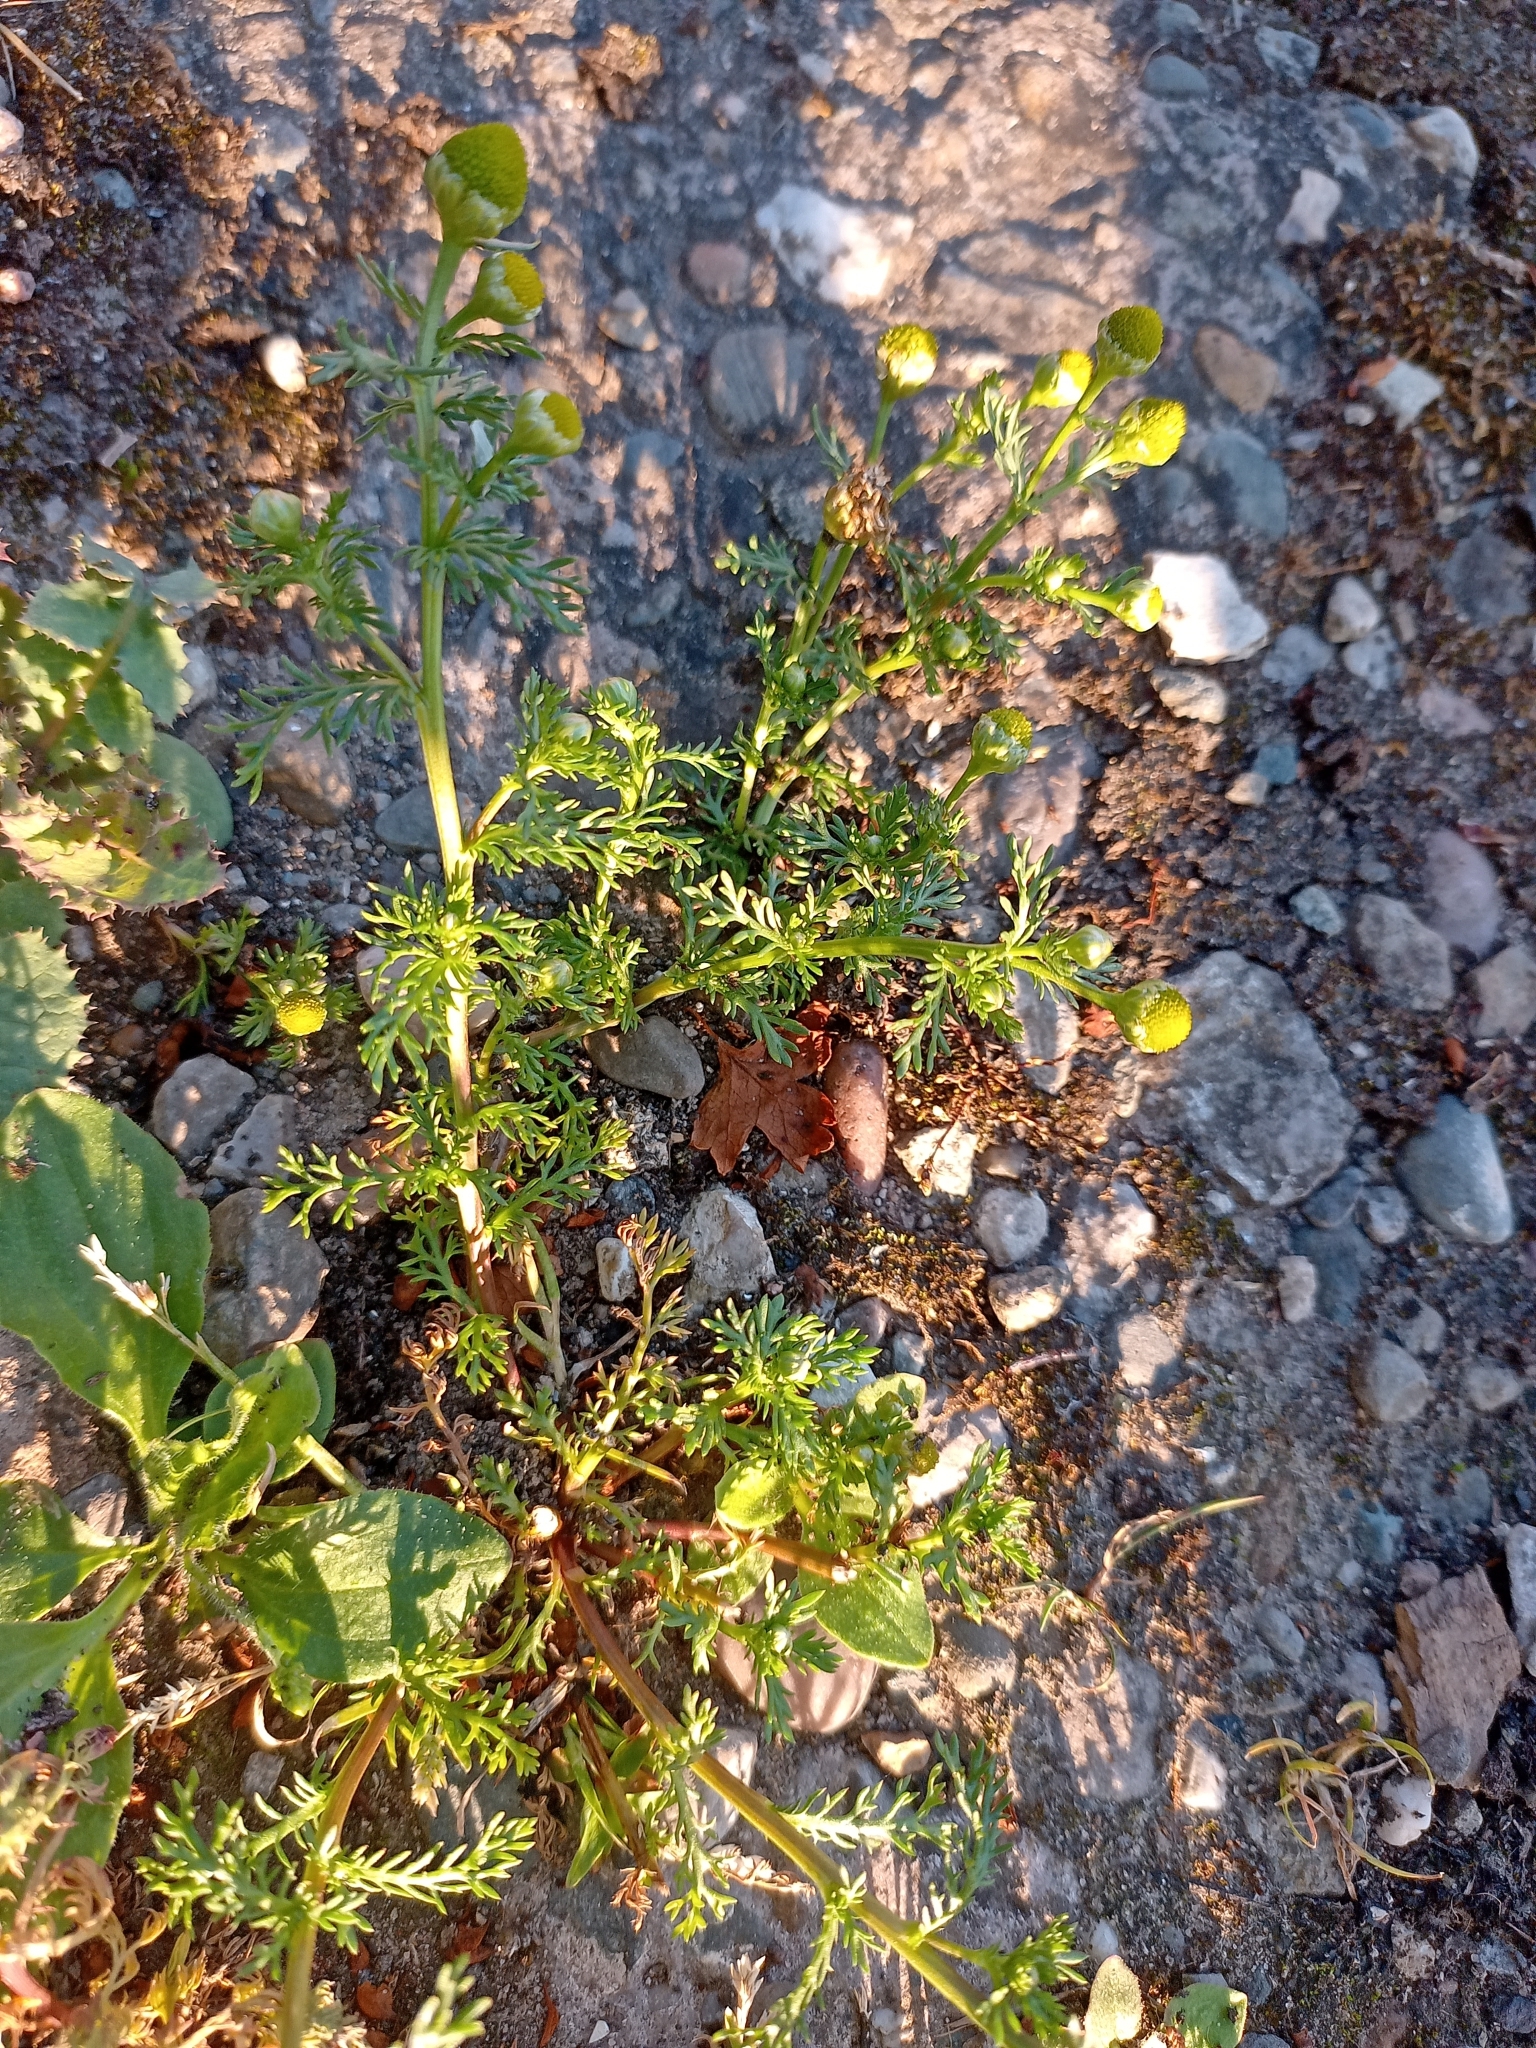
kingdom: Plantae
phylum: Tracheophyta
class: Magnoliopsida
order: Asterales
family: Asteraceae
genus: Matricaria
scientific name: Matricaria discoidea
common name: Disc mayweed
